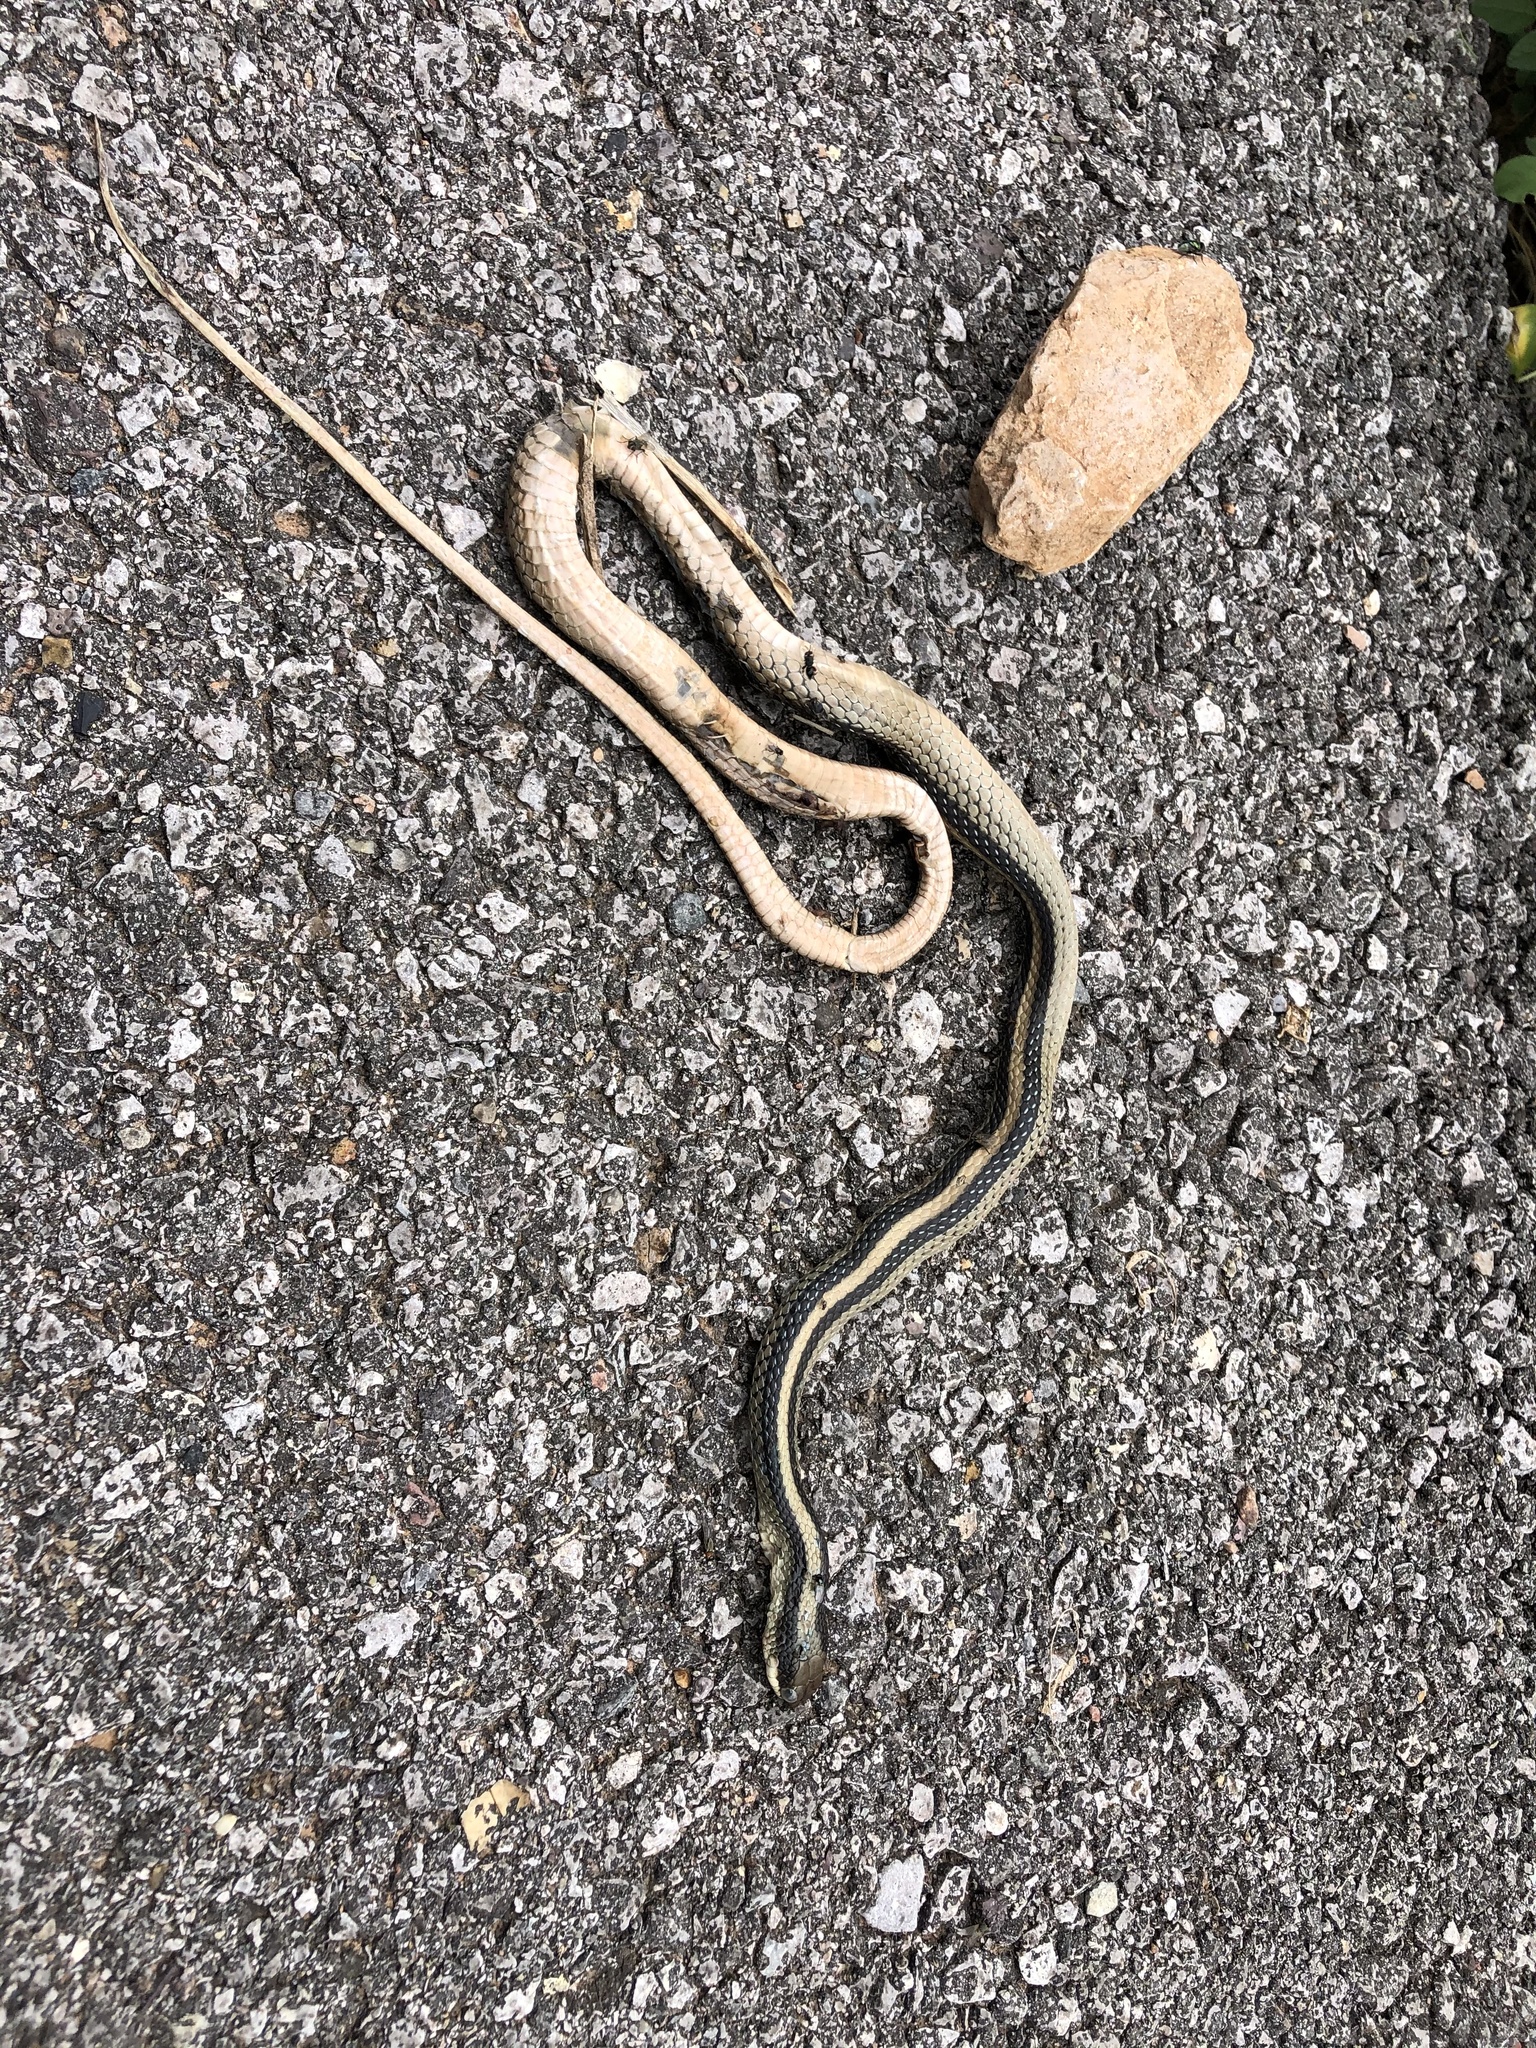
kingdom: Animalia
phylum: Chordata
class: Squamata
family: Colubridae
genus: Salvadora
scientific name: Salvadora grahamiae
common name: Mountain patchnose snake
